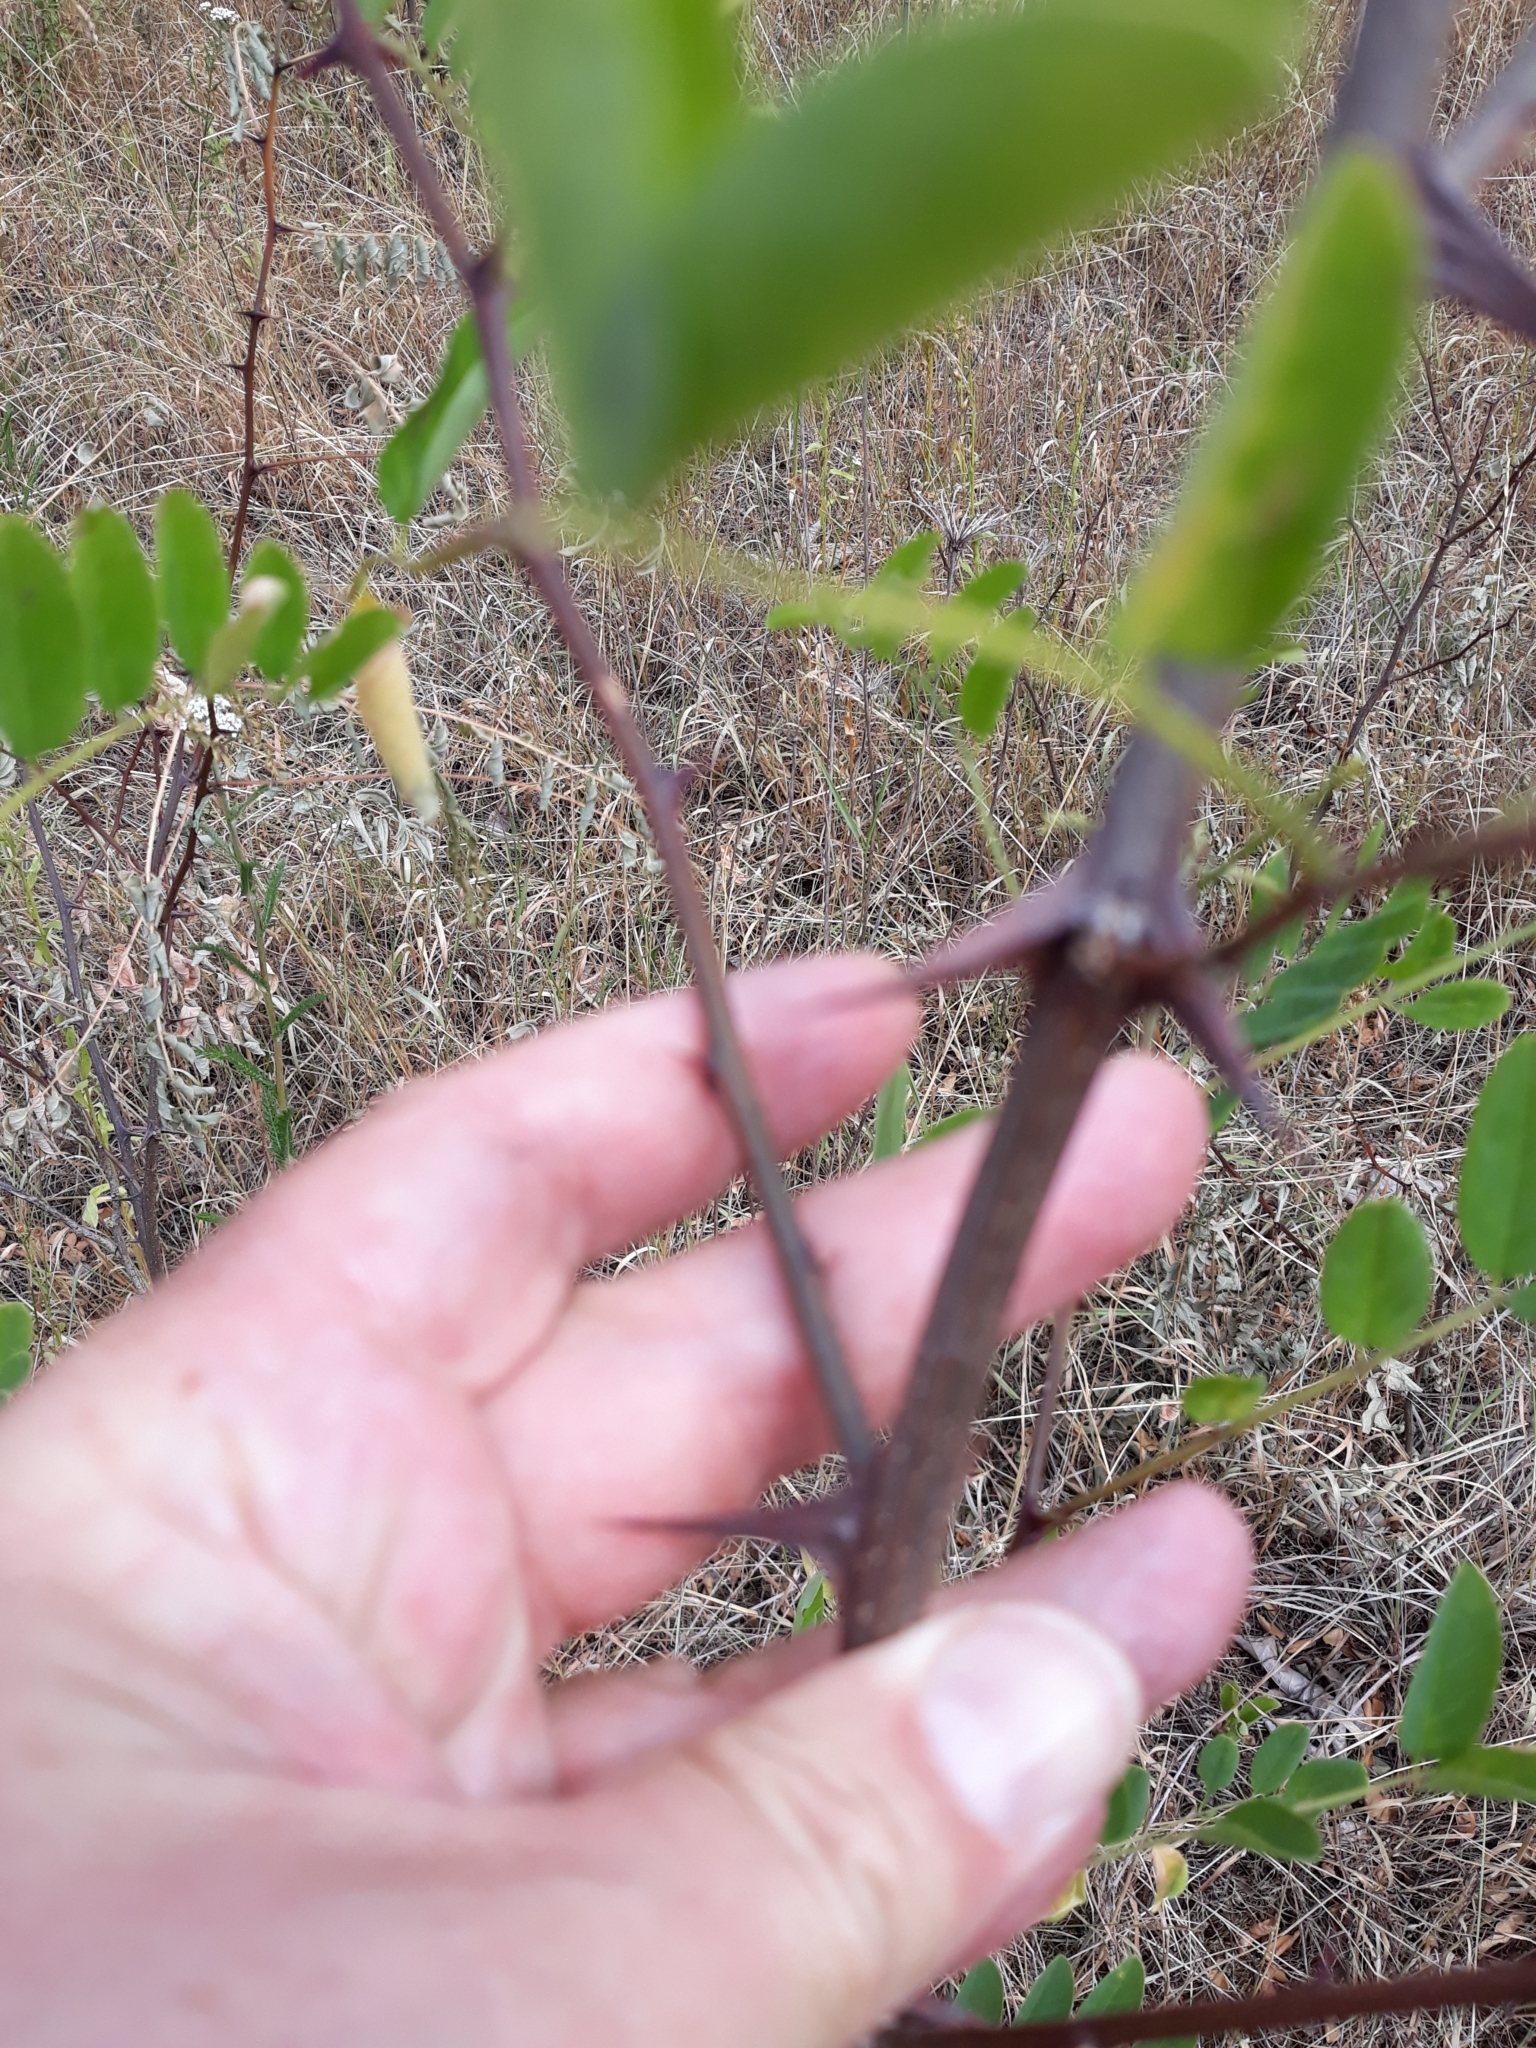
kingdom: Plantae
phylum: Tracheophyta
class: Magnoliopsida
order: Fabales
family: Fabaceae
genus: Robinia
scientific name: Robinia pseudoacacia
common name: Black locust
